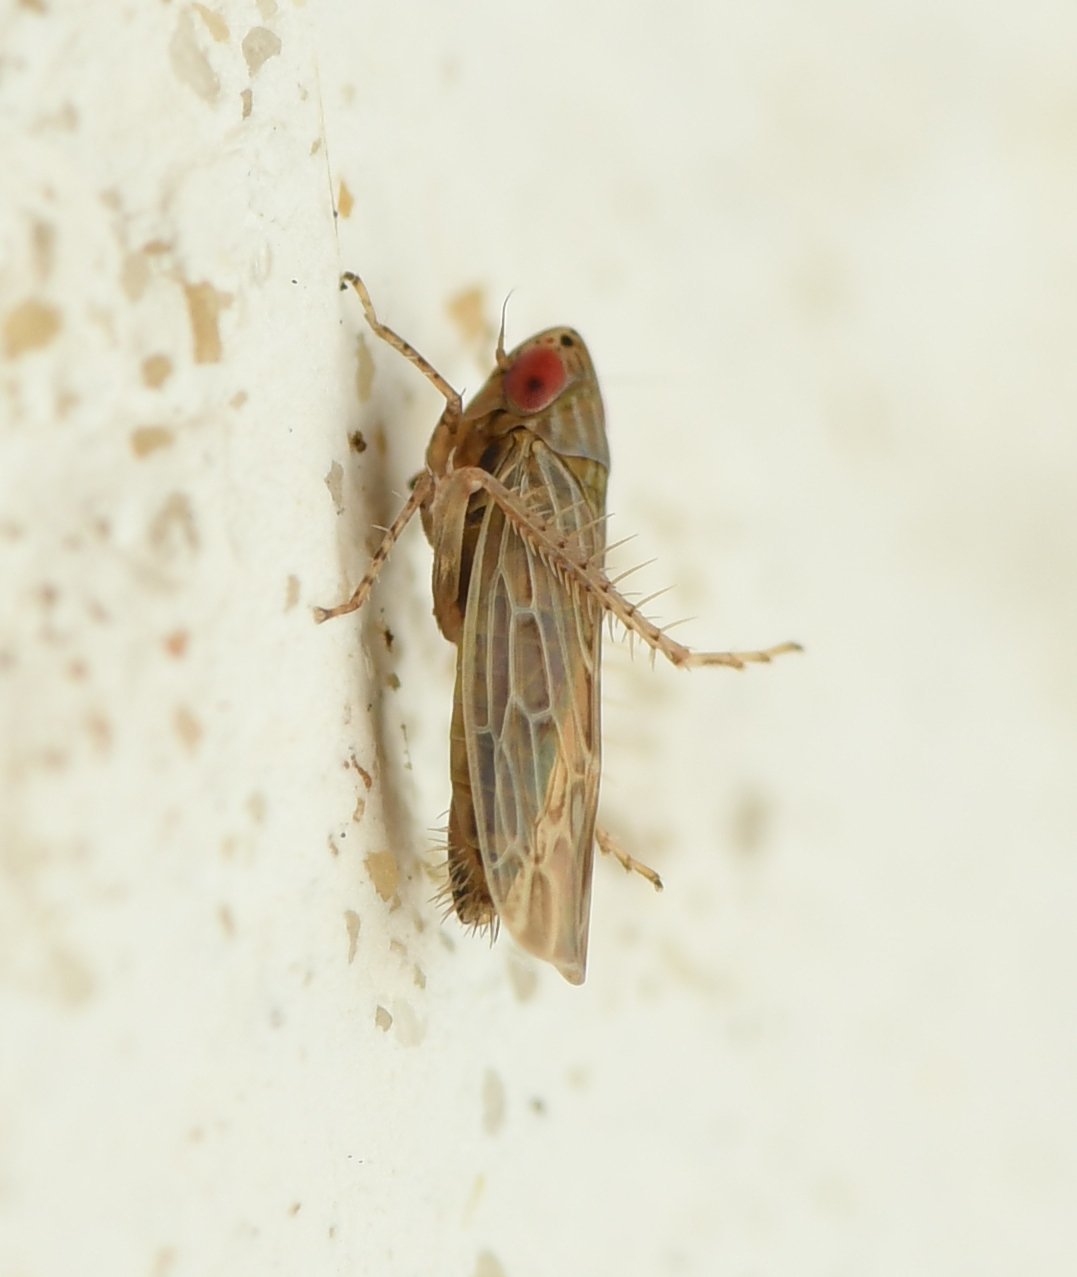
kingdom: Animalia
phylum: Arthropoda
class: Insecta
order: Hemiptera
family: Cicadellidae
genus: Graminella
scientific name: Graminella sonora
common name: Lesser lawn leafhopper
